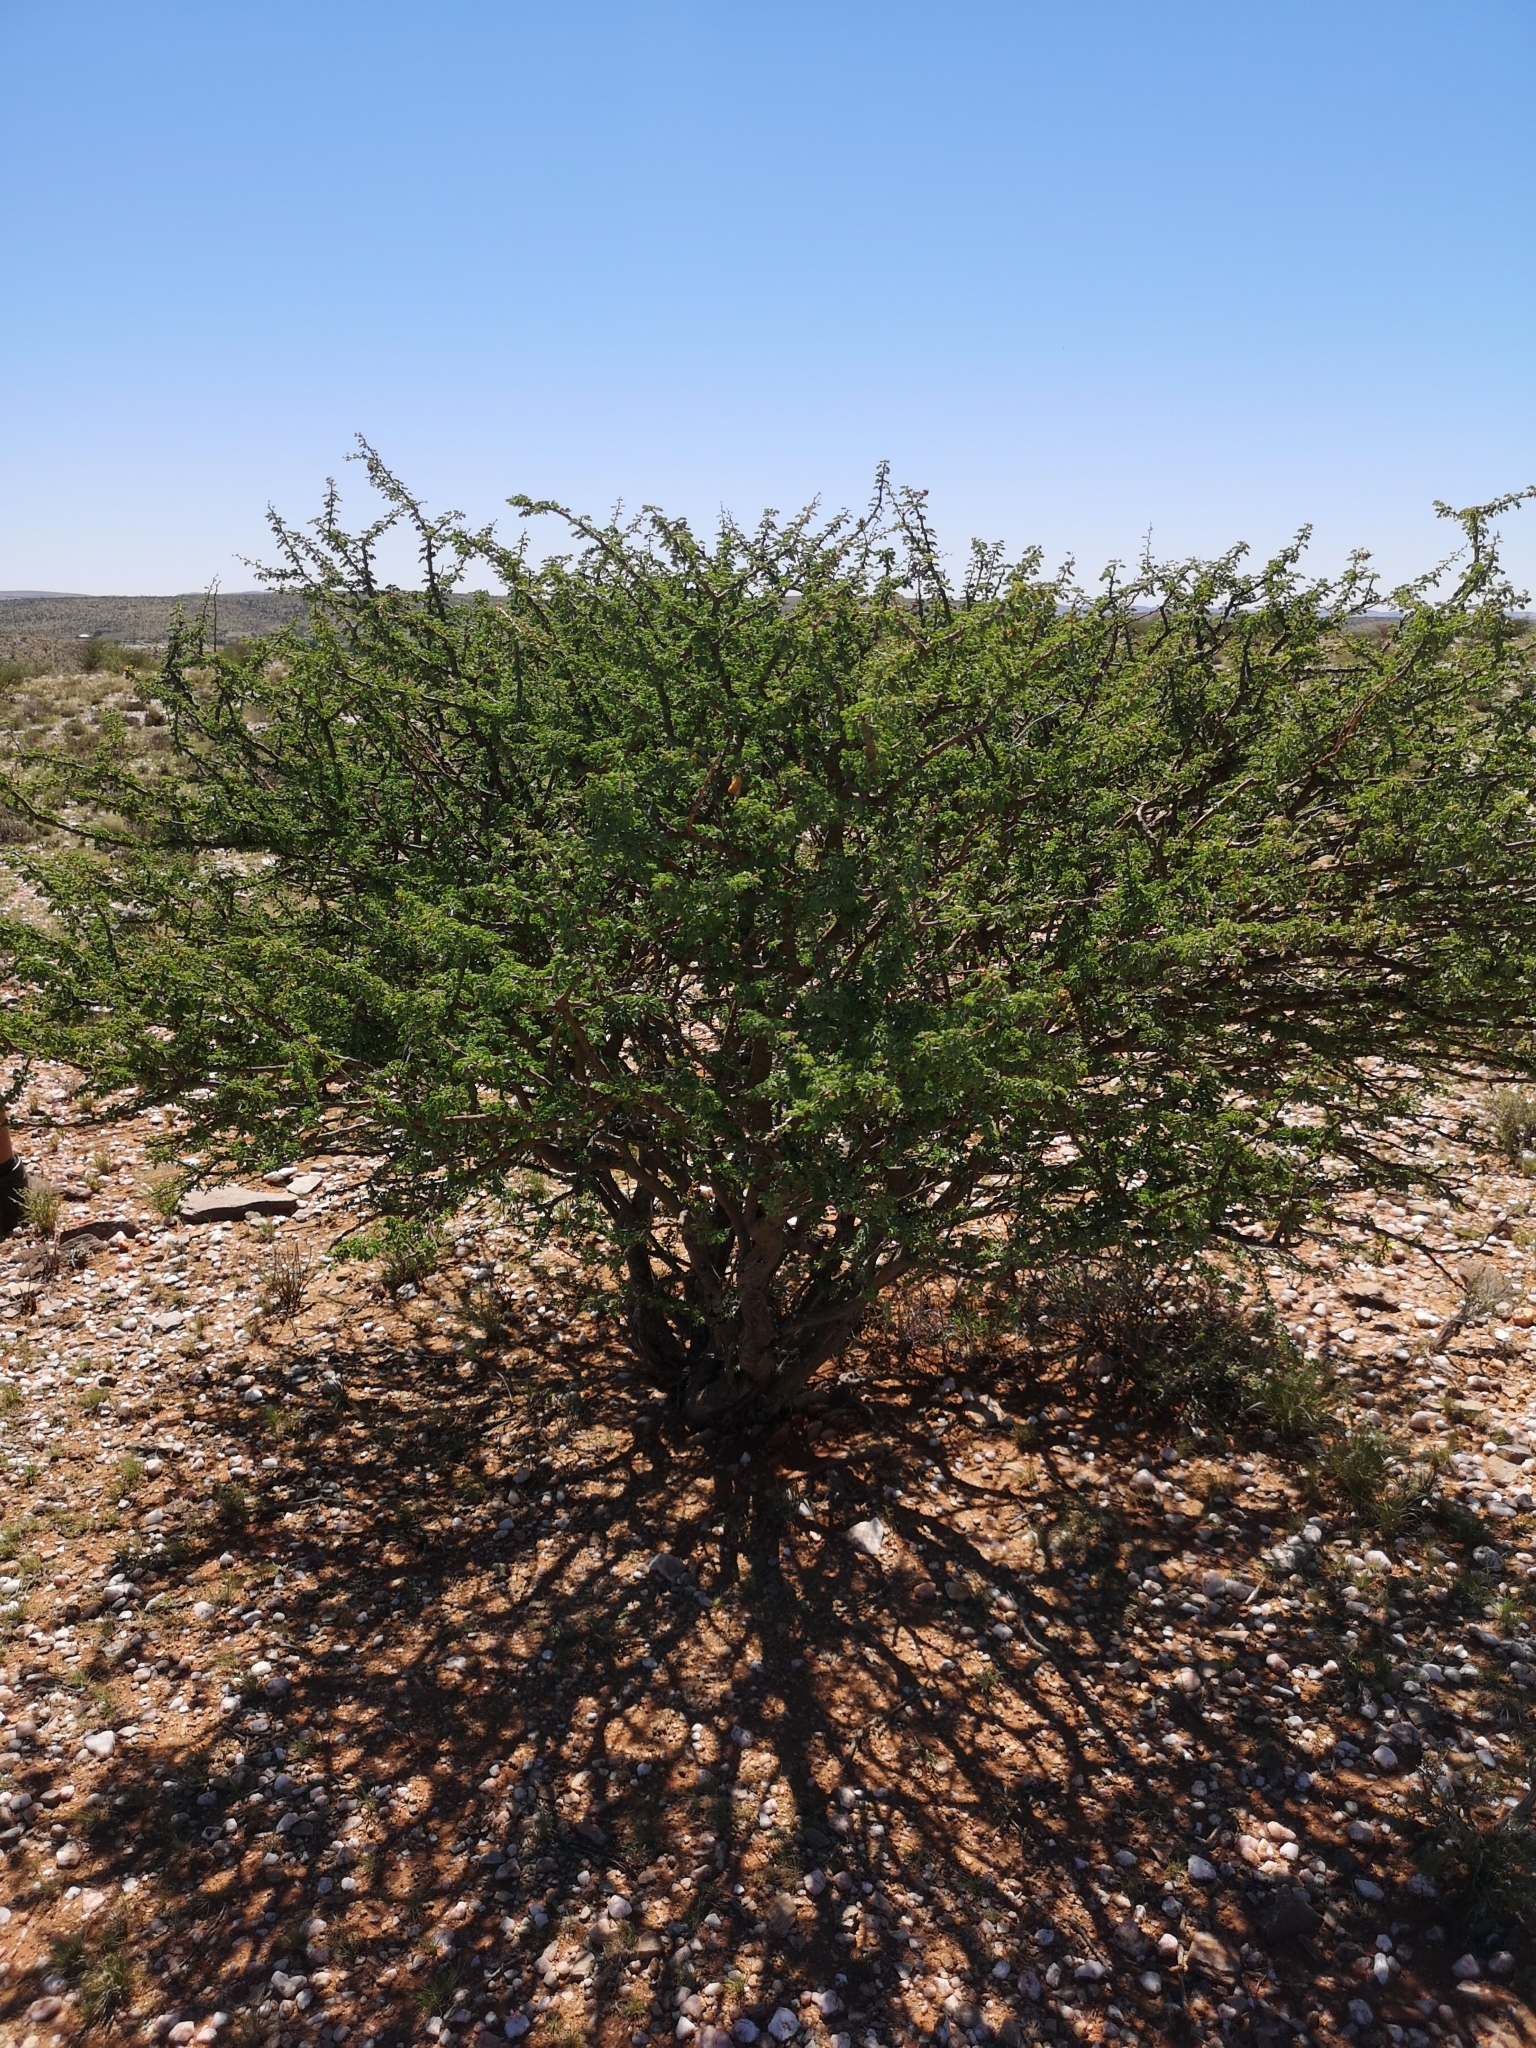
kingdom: Plantae
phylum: Tracheophyta
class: Magnoliopsida
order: Fabales
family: Fabaceae
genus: Senegalia
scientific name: Senegalia mellifera
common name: Hookthorn
